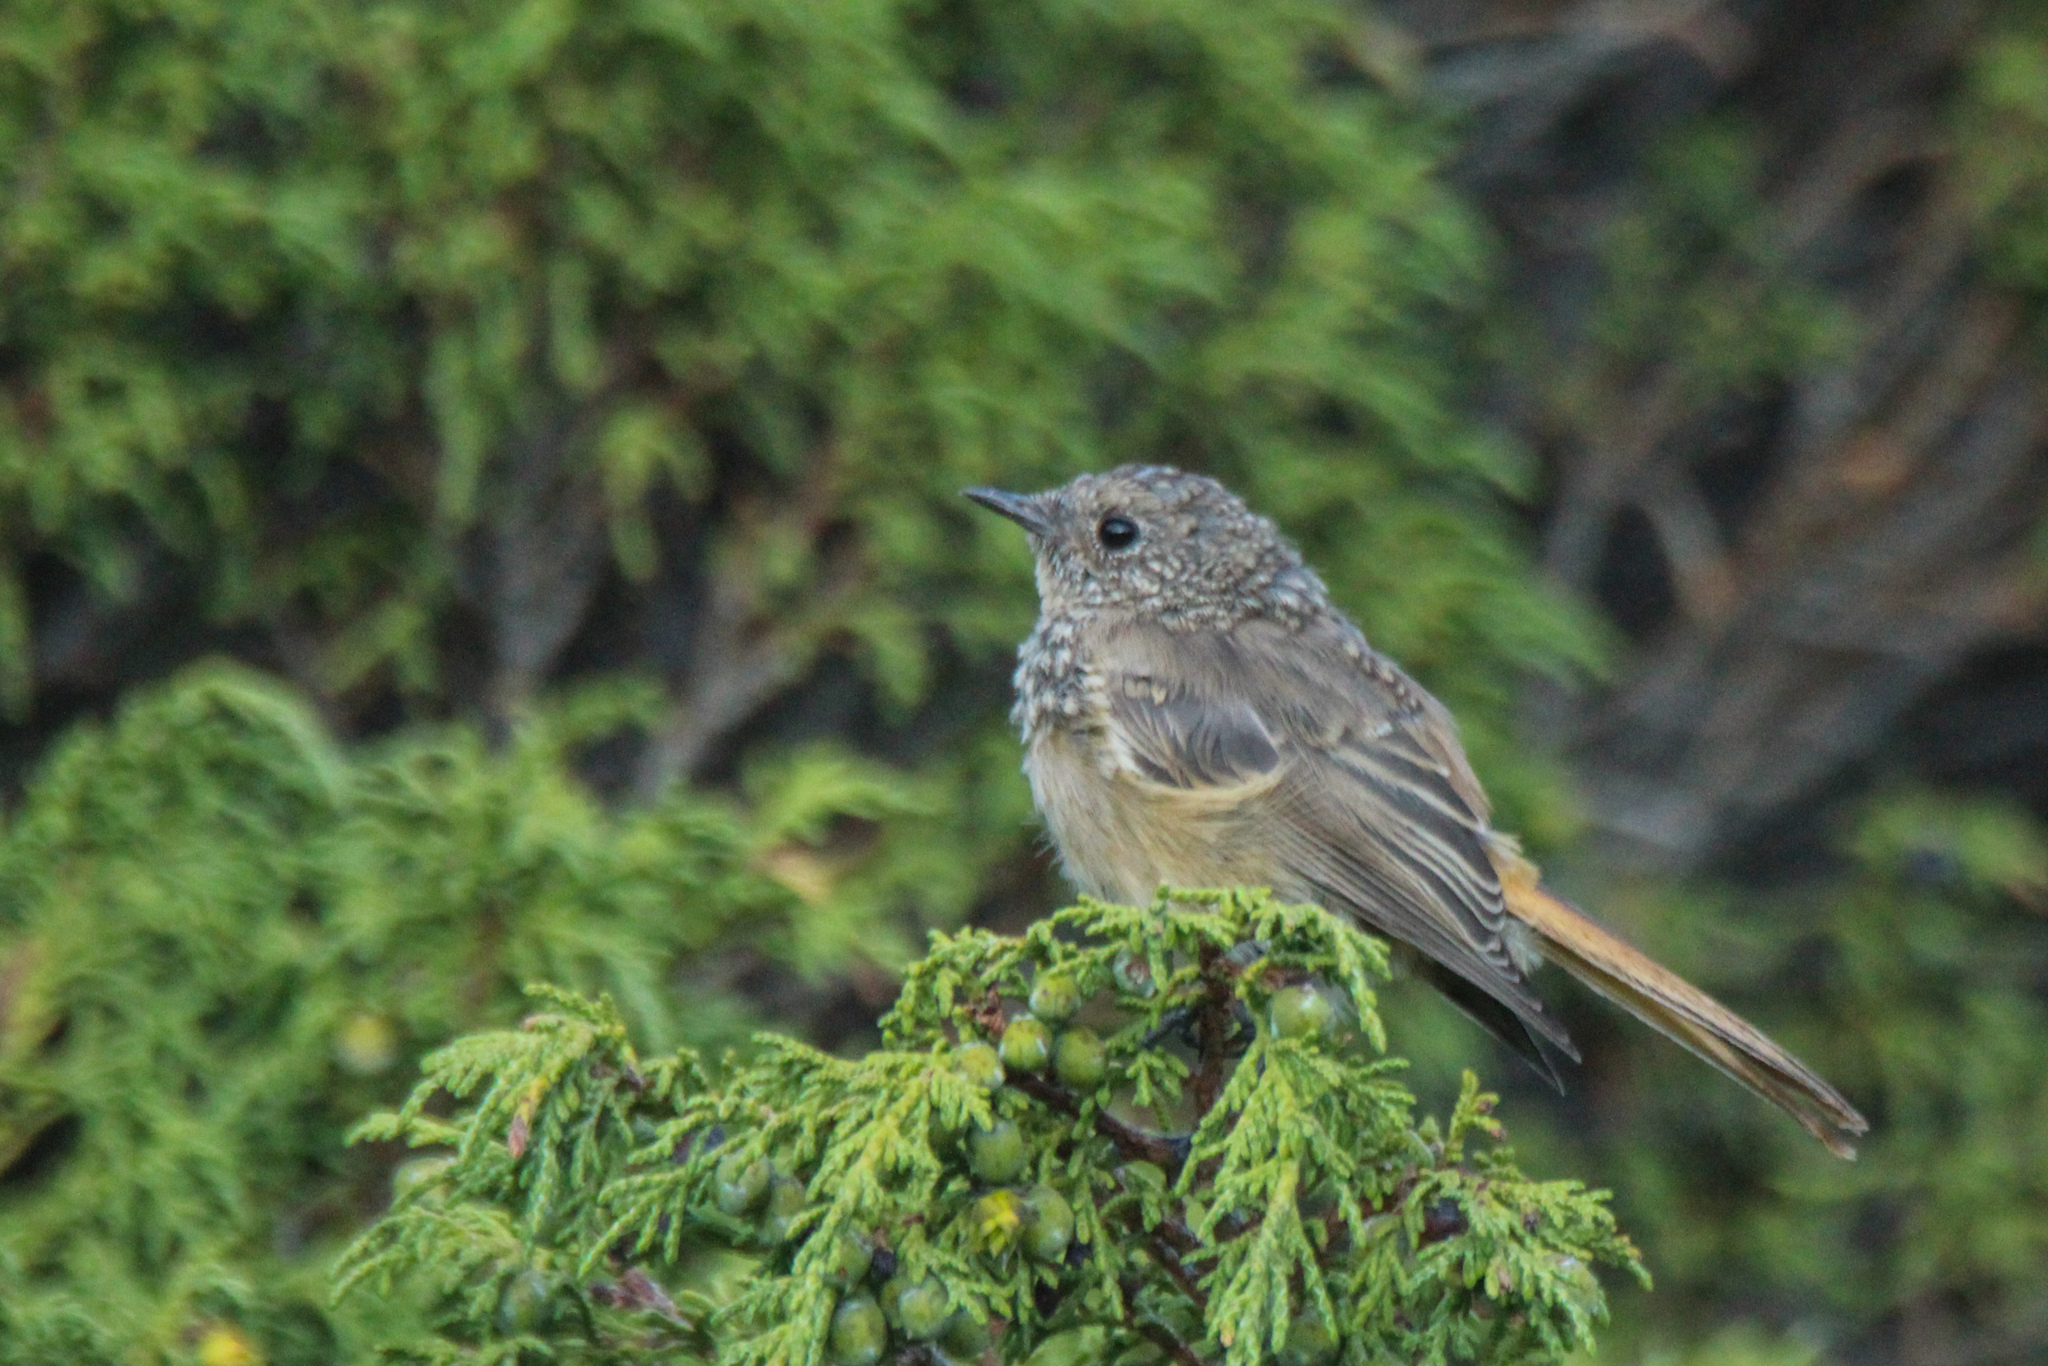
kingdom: Animalia
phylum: Chordata
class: Aves
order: Passeriformes
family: Muscicapidae
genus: Phoenicurus
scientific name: Phoenicurus erythronotus
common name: Eversmann's redstart
